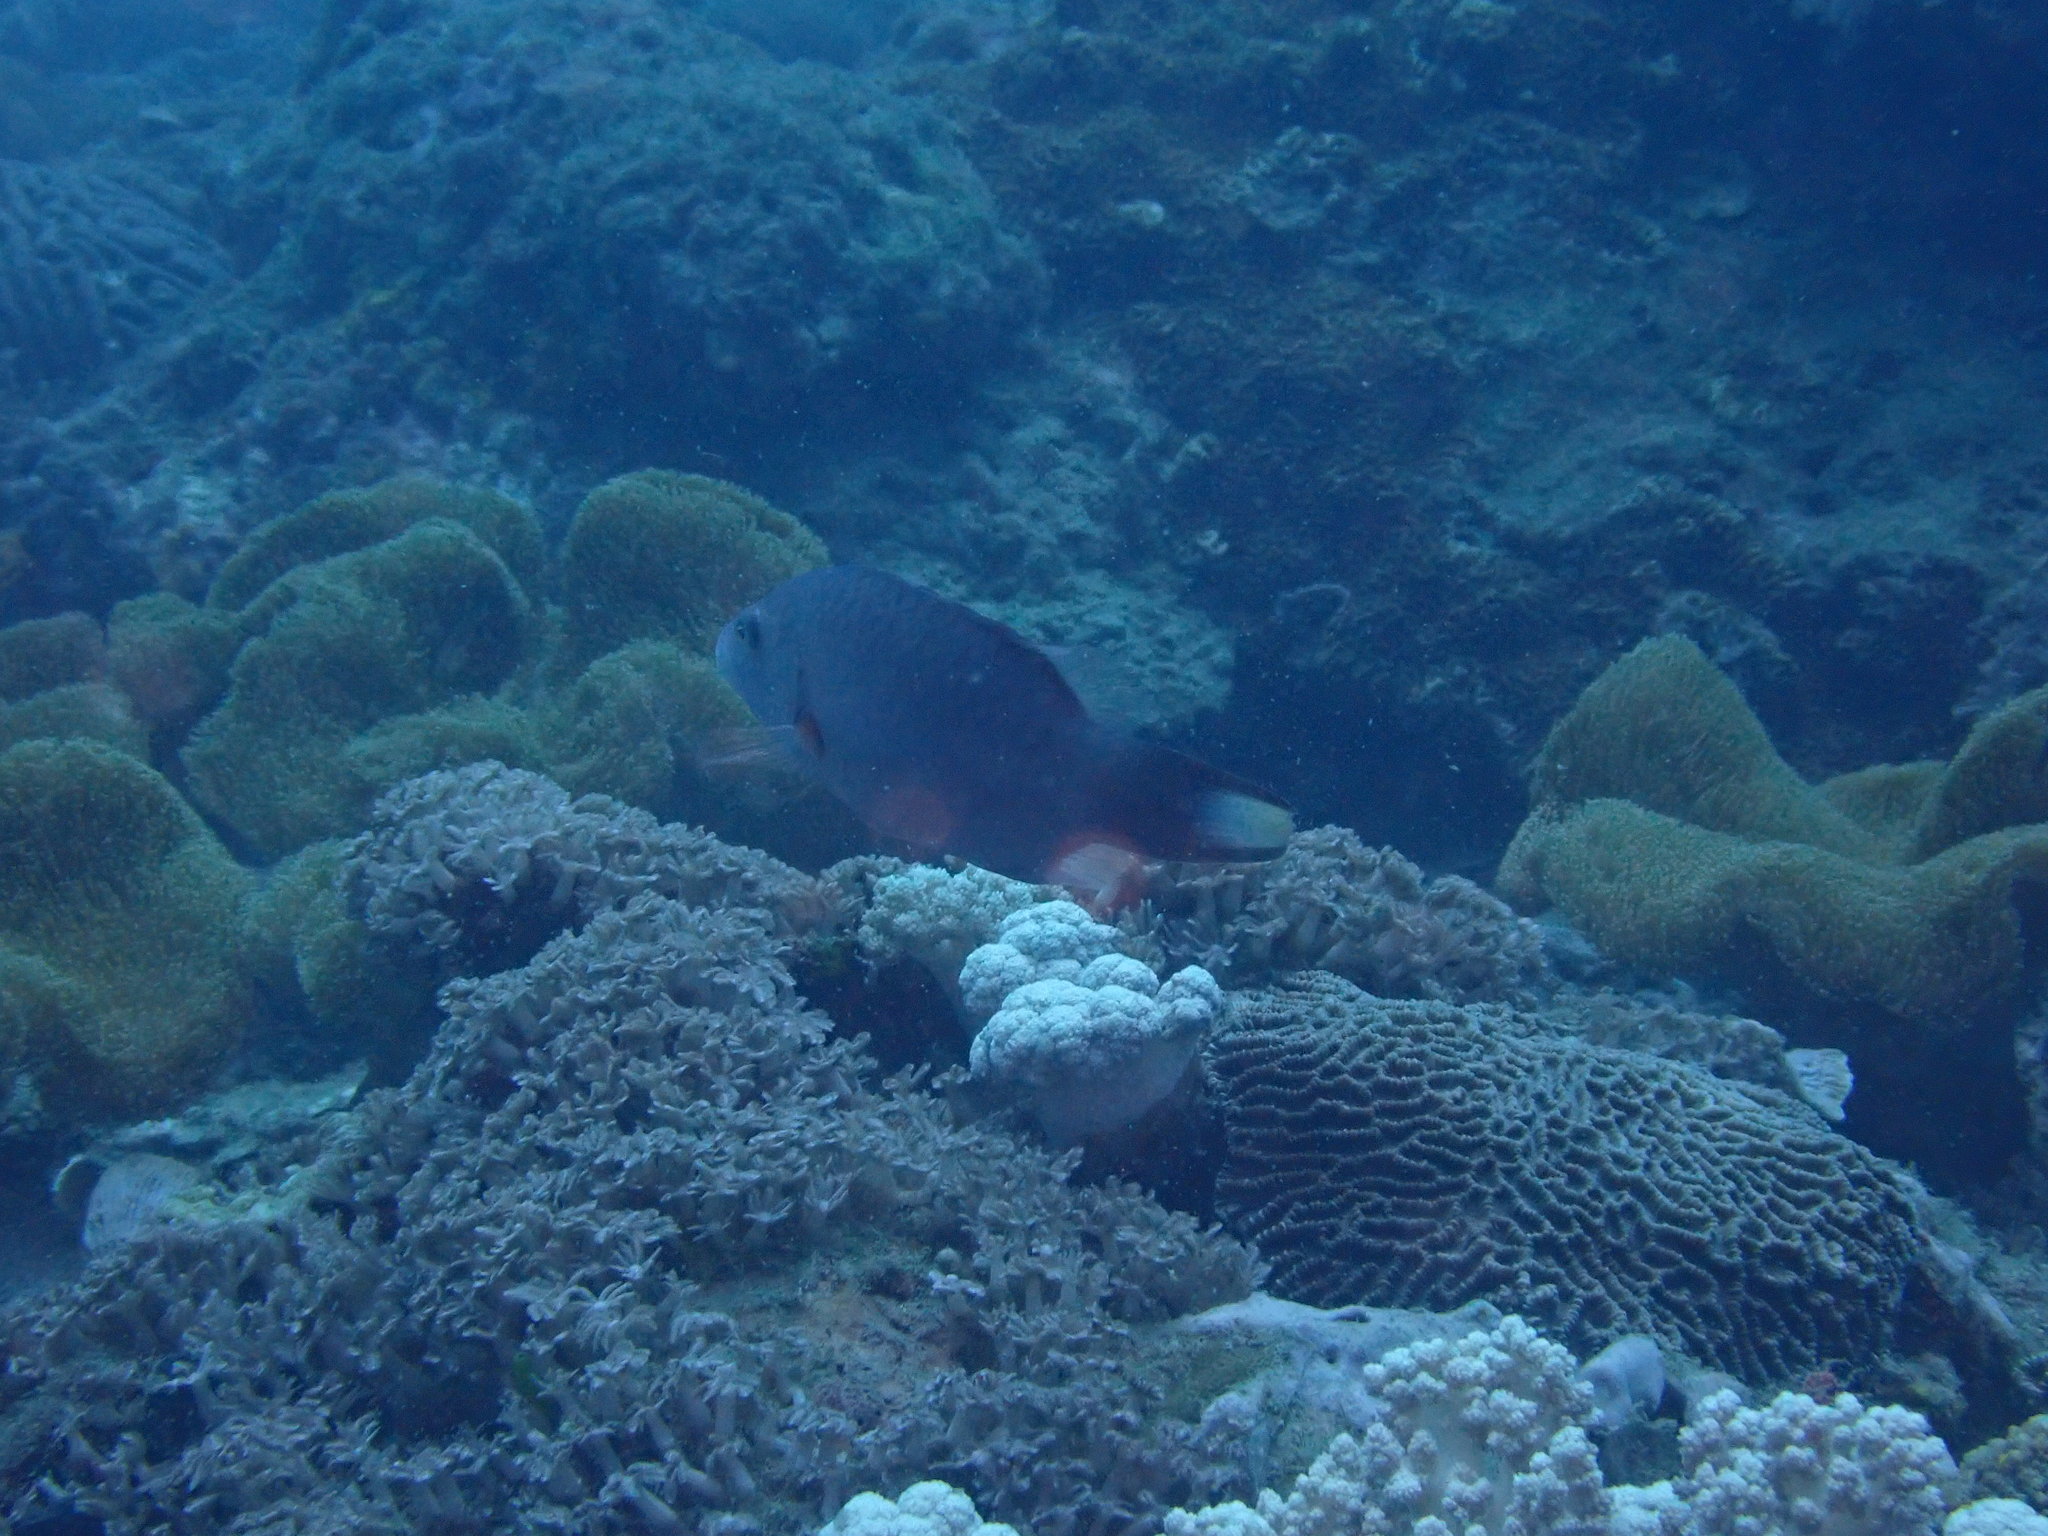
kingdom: Animalia
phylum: Chordata
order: Perciformes
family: Labridae
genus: Oxycheilinus
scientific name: Oxycheilinus digramma
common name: Bandcheek wrasse
